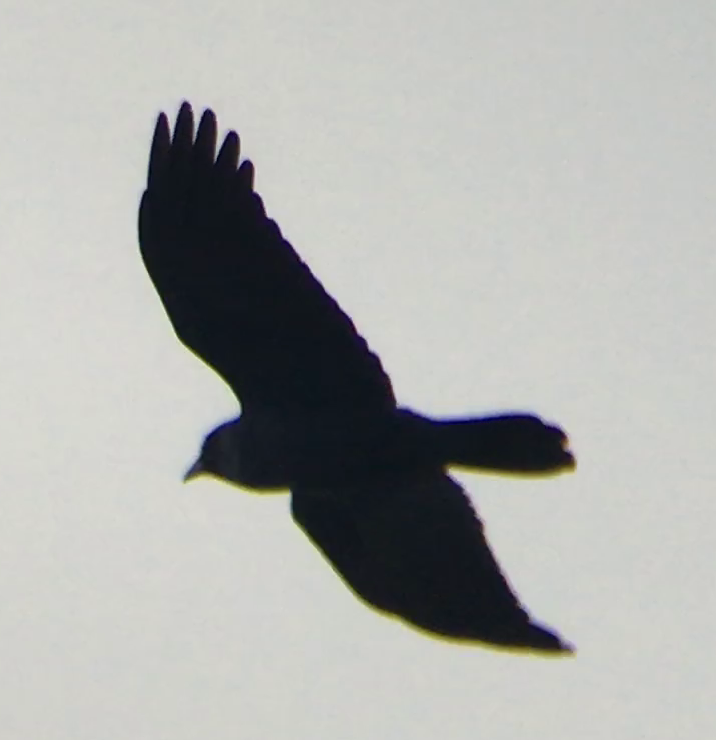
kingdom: Animalia
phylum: Chordata
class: Aves
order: Passeriformes
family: Corvidae
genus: Corvus
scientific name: Corvus mellori
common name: Little raven
